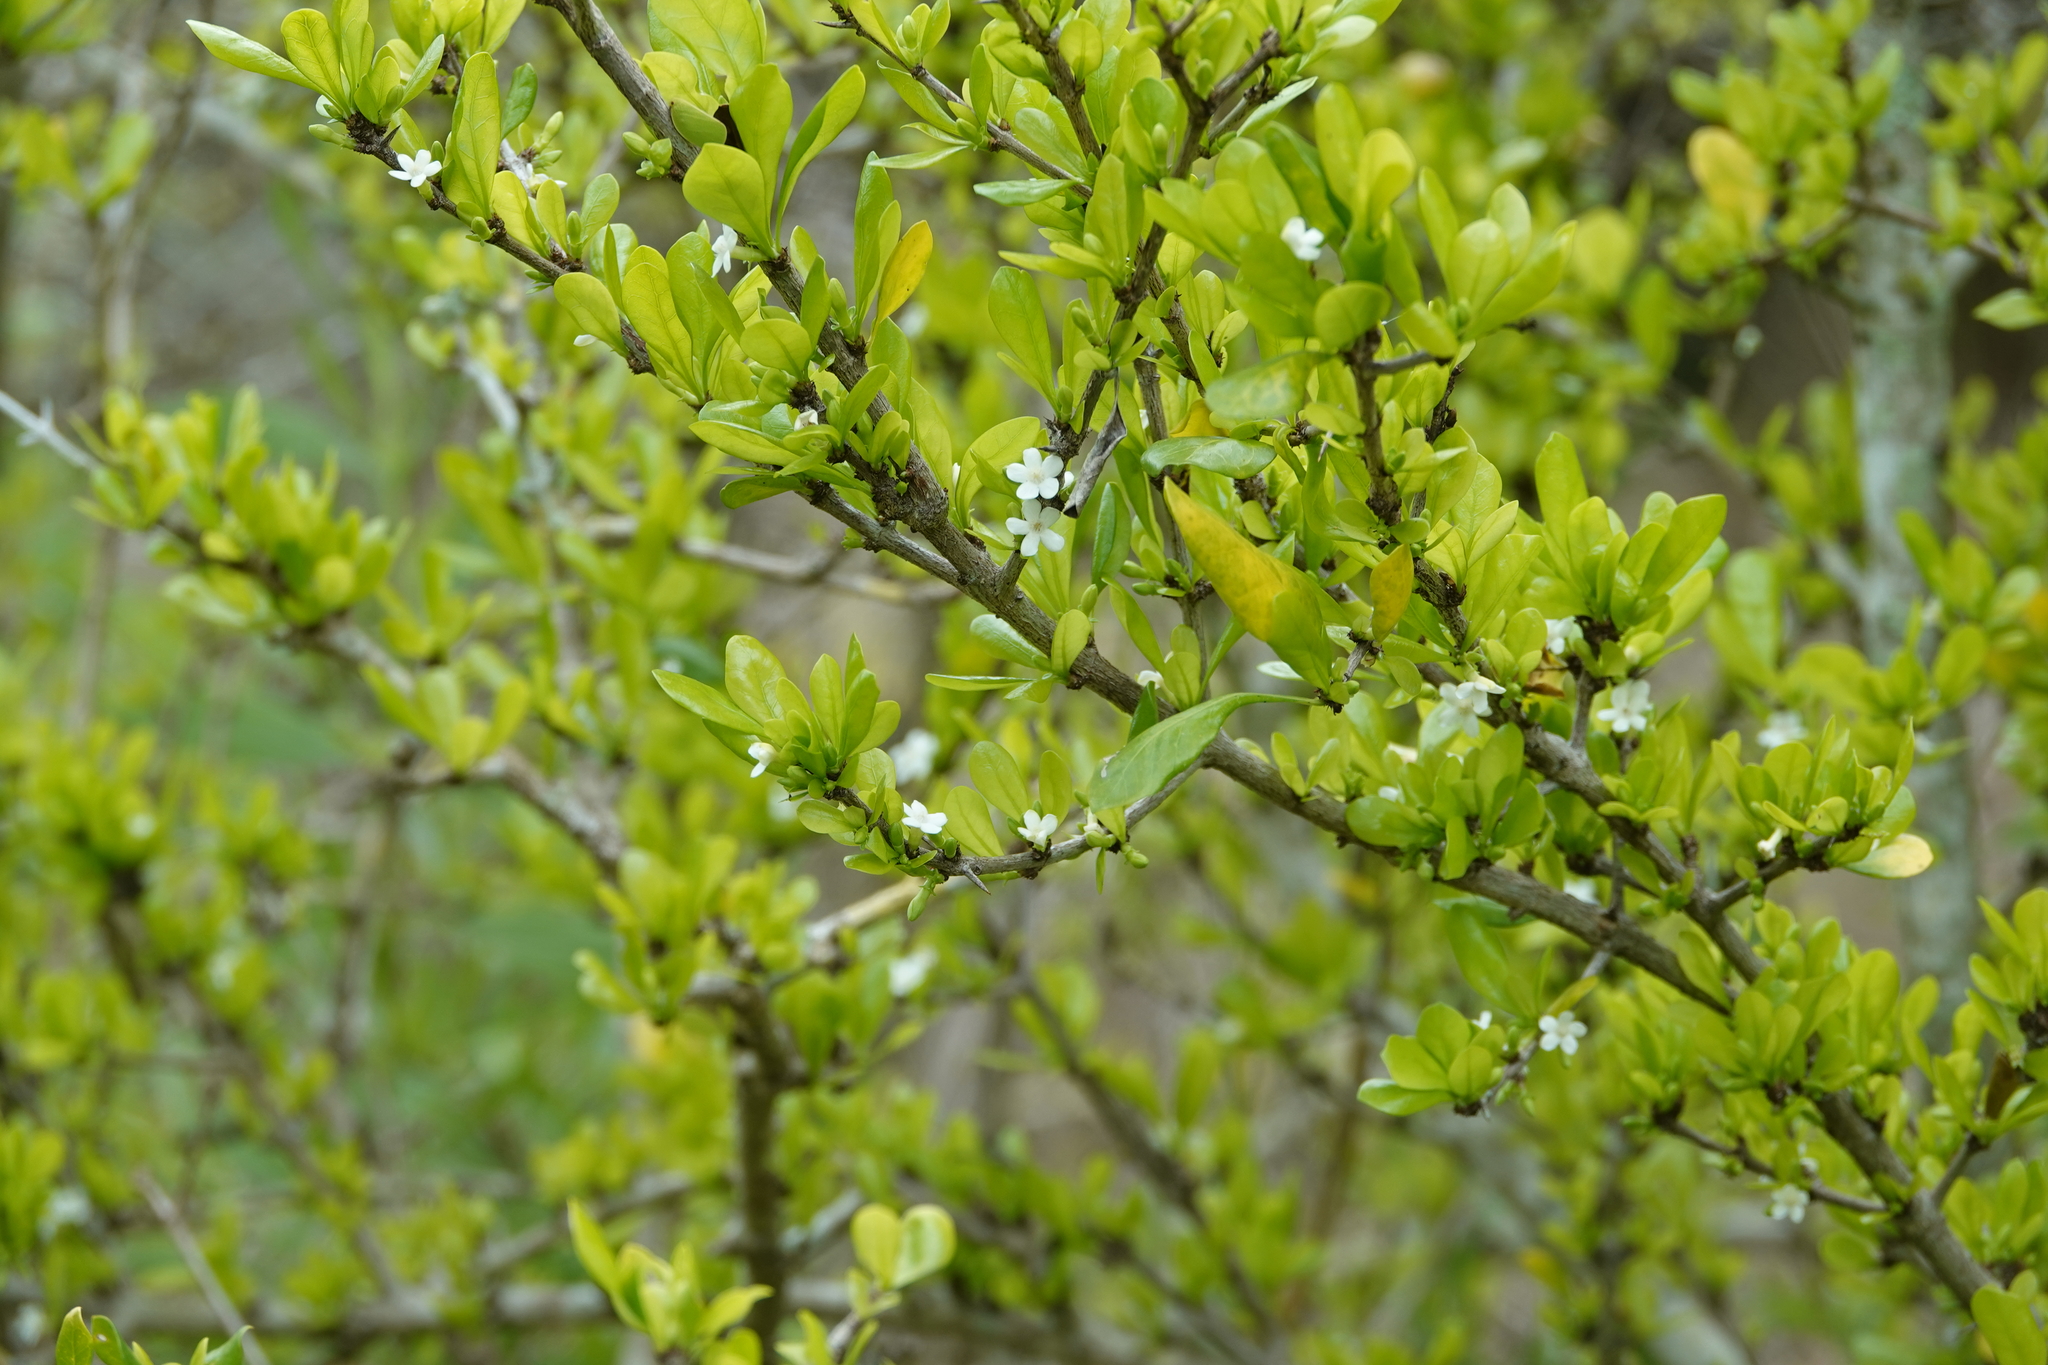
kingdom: Plantae
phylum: Tracheophyta
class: Magnoliopsida
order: Gentianales
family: Rubiaceae
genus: Randia
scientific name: Randia aculeata
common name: Inkberry
